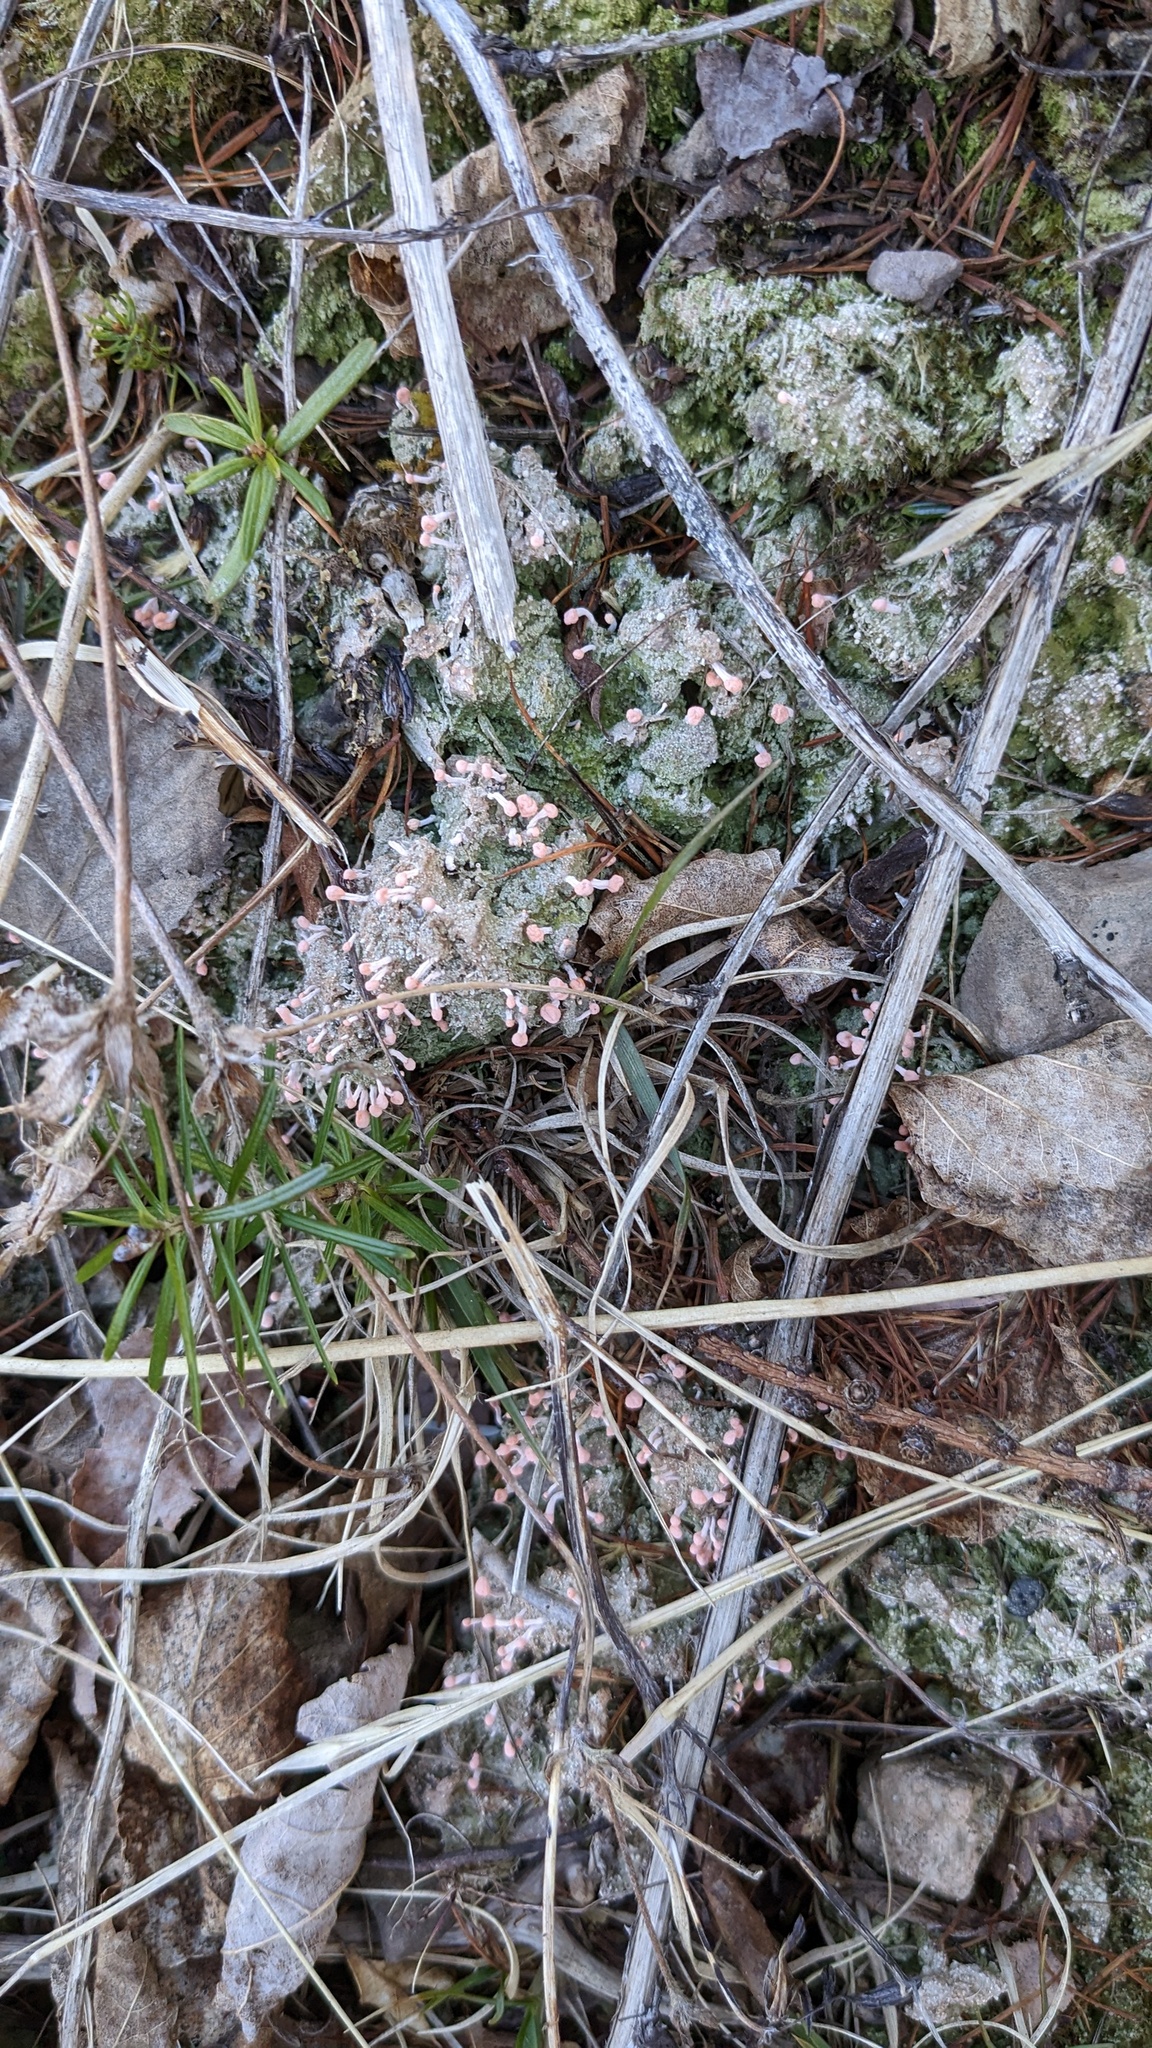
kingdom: Fungi
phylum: Ascomycota
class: Lecanoromycetes
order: Pertusariales
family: Icmadophilaceae
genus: Dibaeis
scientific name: Dibaeis baeomyces
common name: Pink earth lichen
